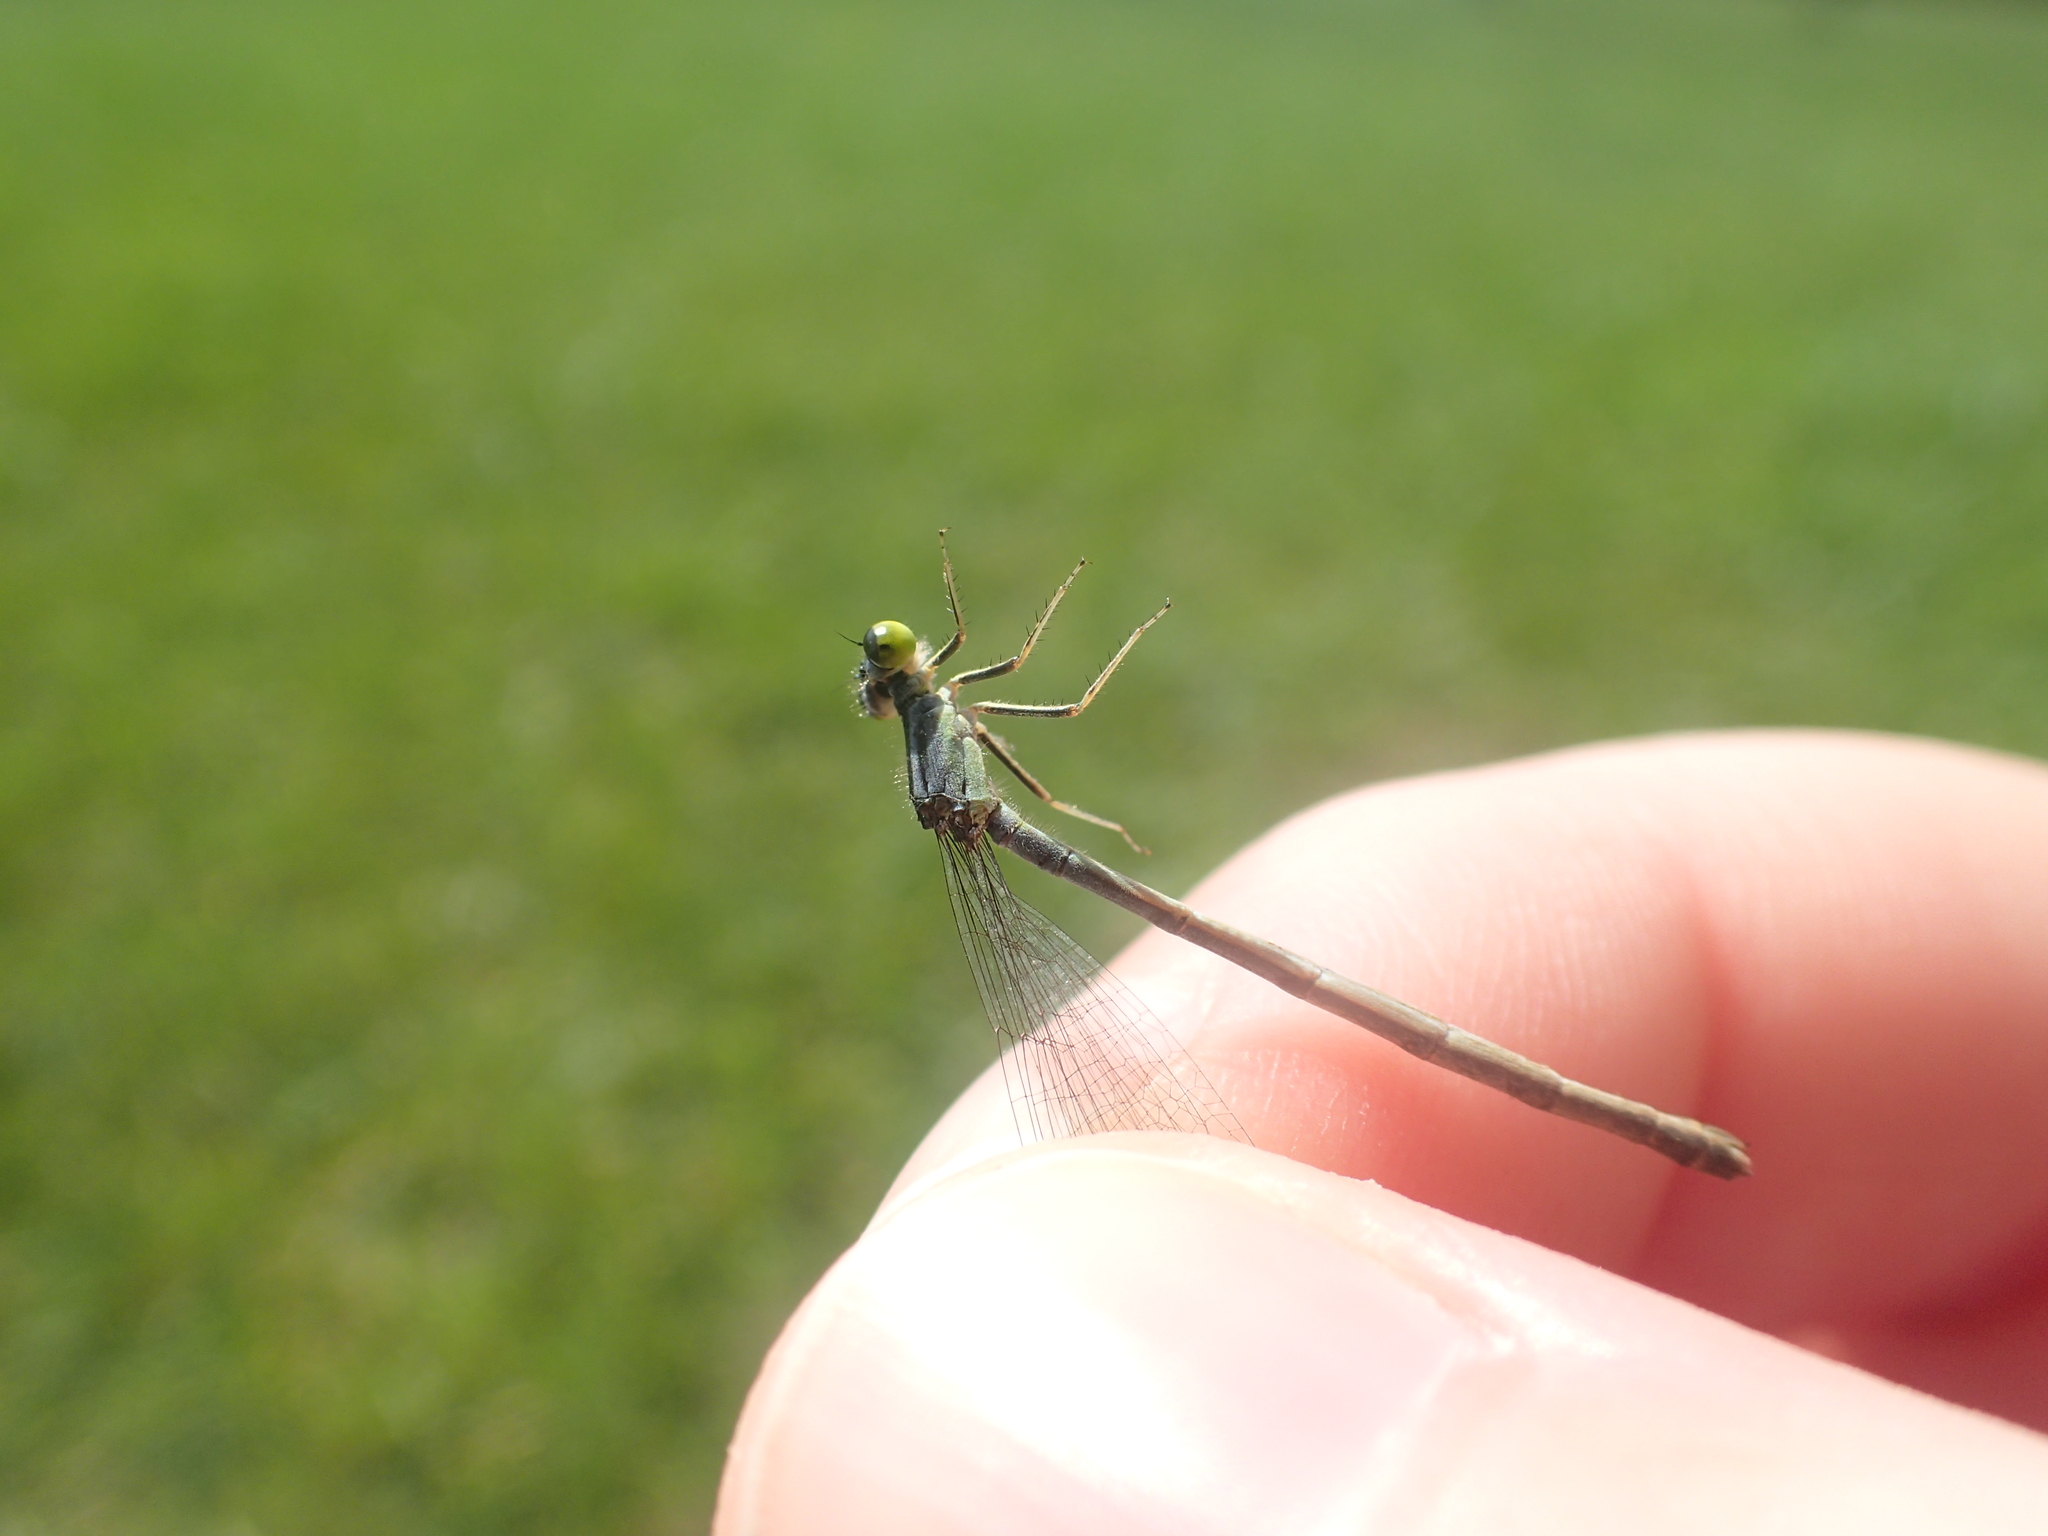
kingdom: Animalia
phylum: Arthropoda
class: Insecta
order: Odonata
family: Coenagrionidae
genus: Ischnura
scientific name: Ischnura verticalis
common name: Eastern forktail
